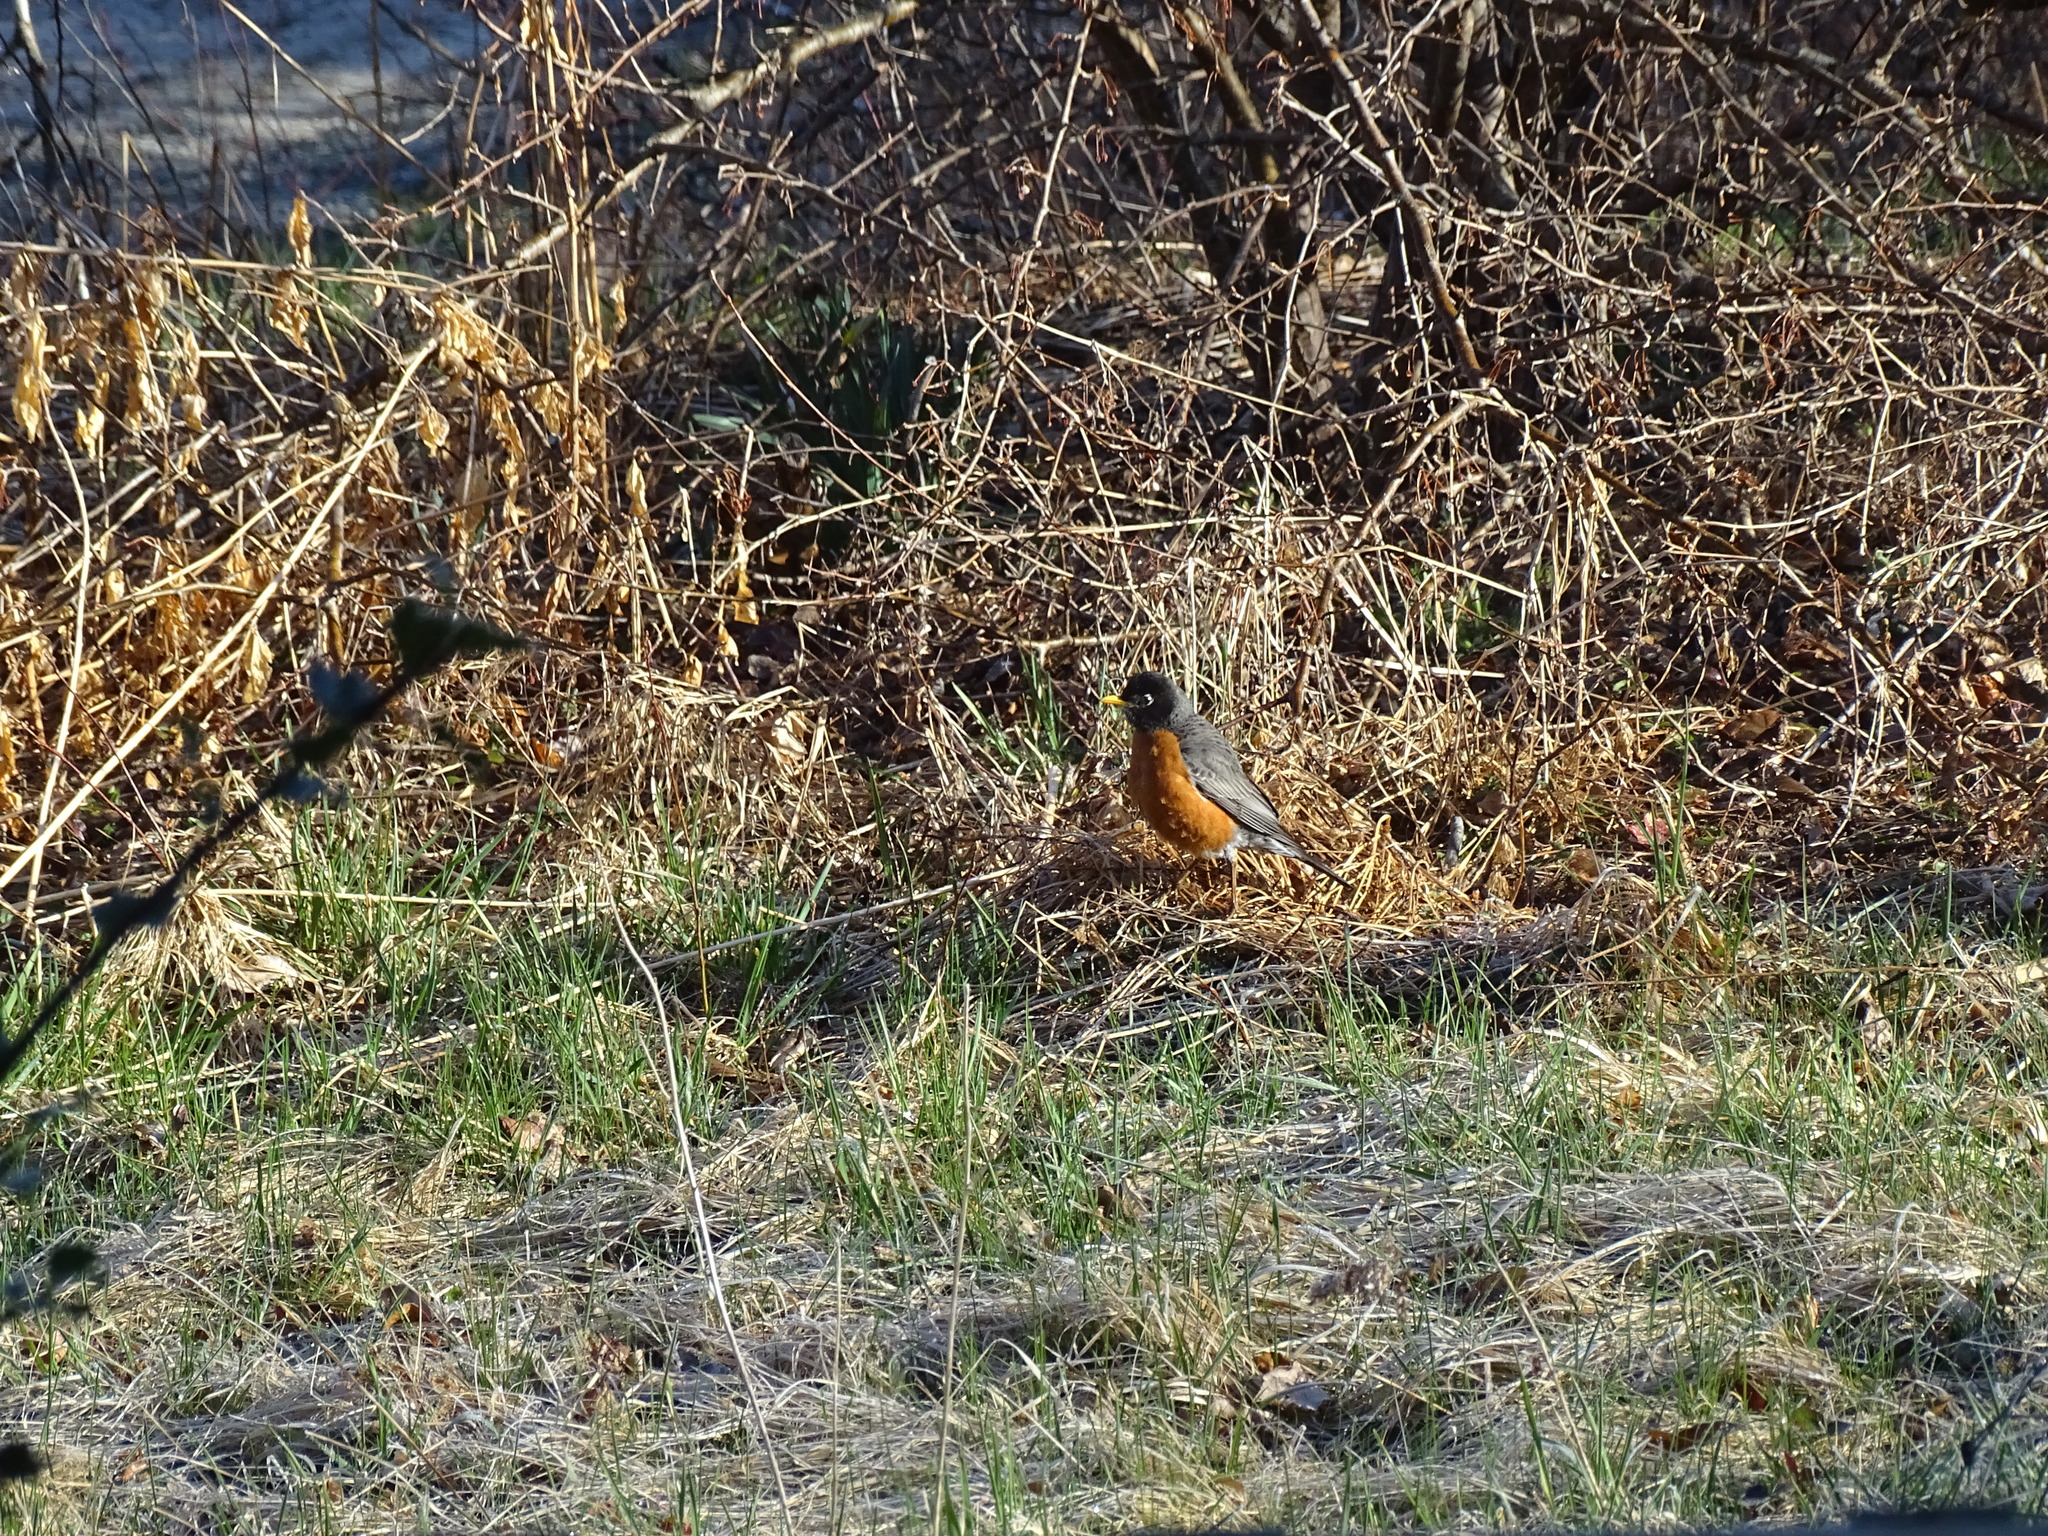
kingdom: Animalia
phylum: Chordata
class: Aves
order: Passeriformes
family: Turdidae
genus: Turdus
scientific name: Turdus migratorius
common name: American robin
